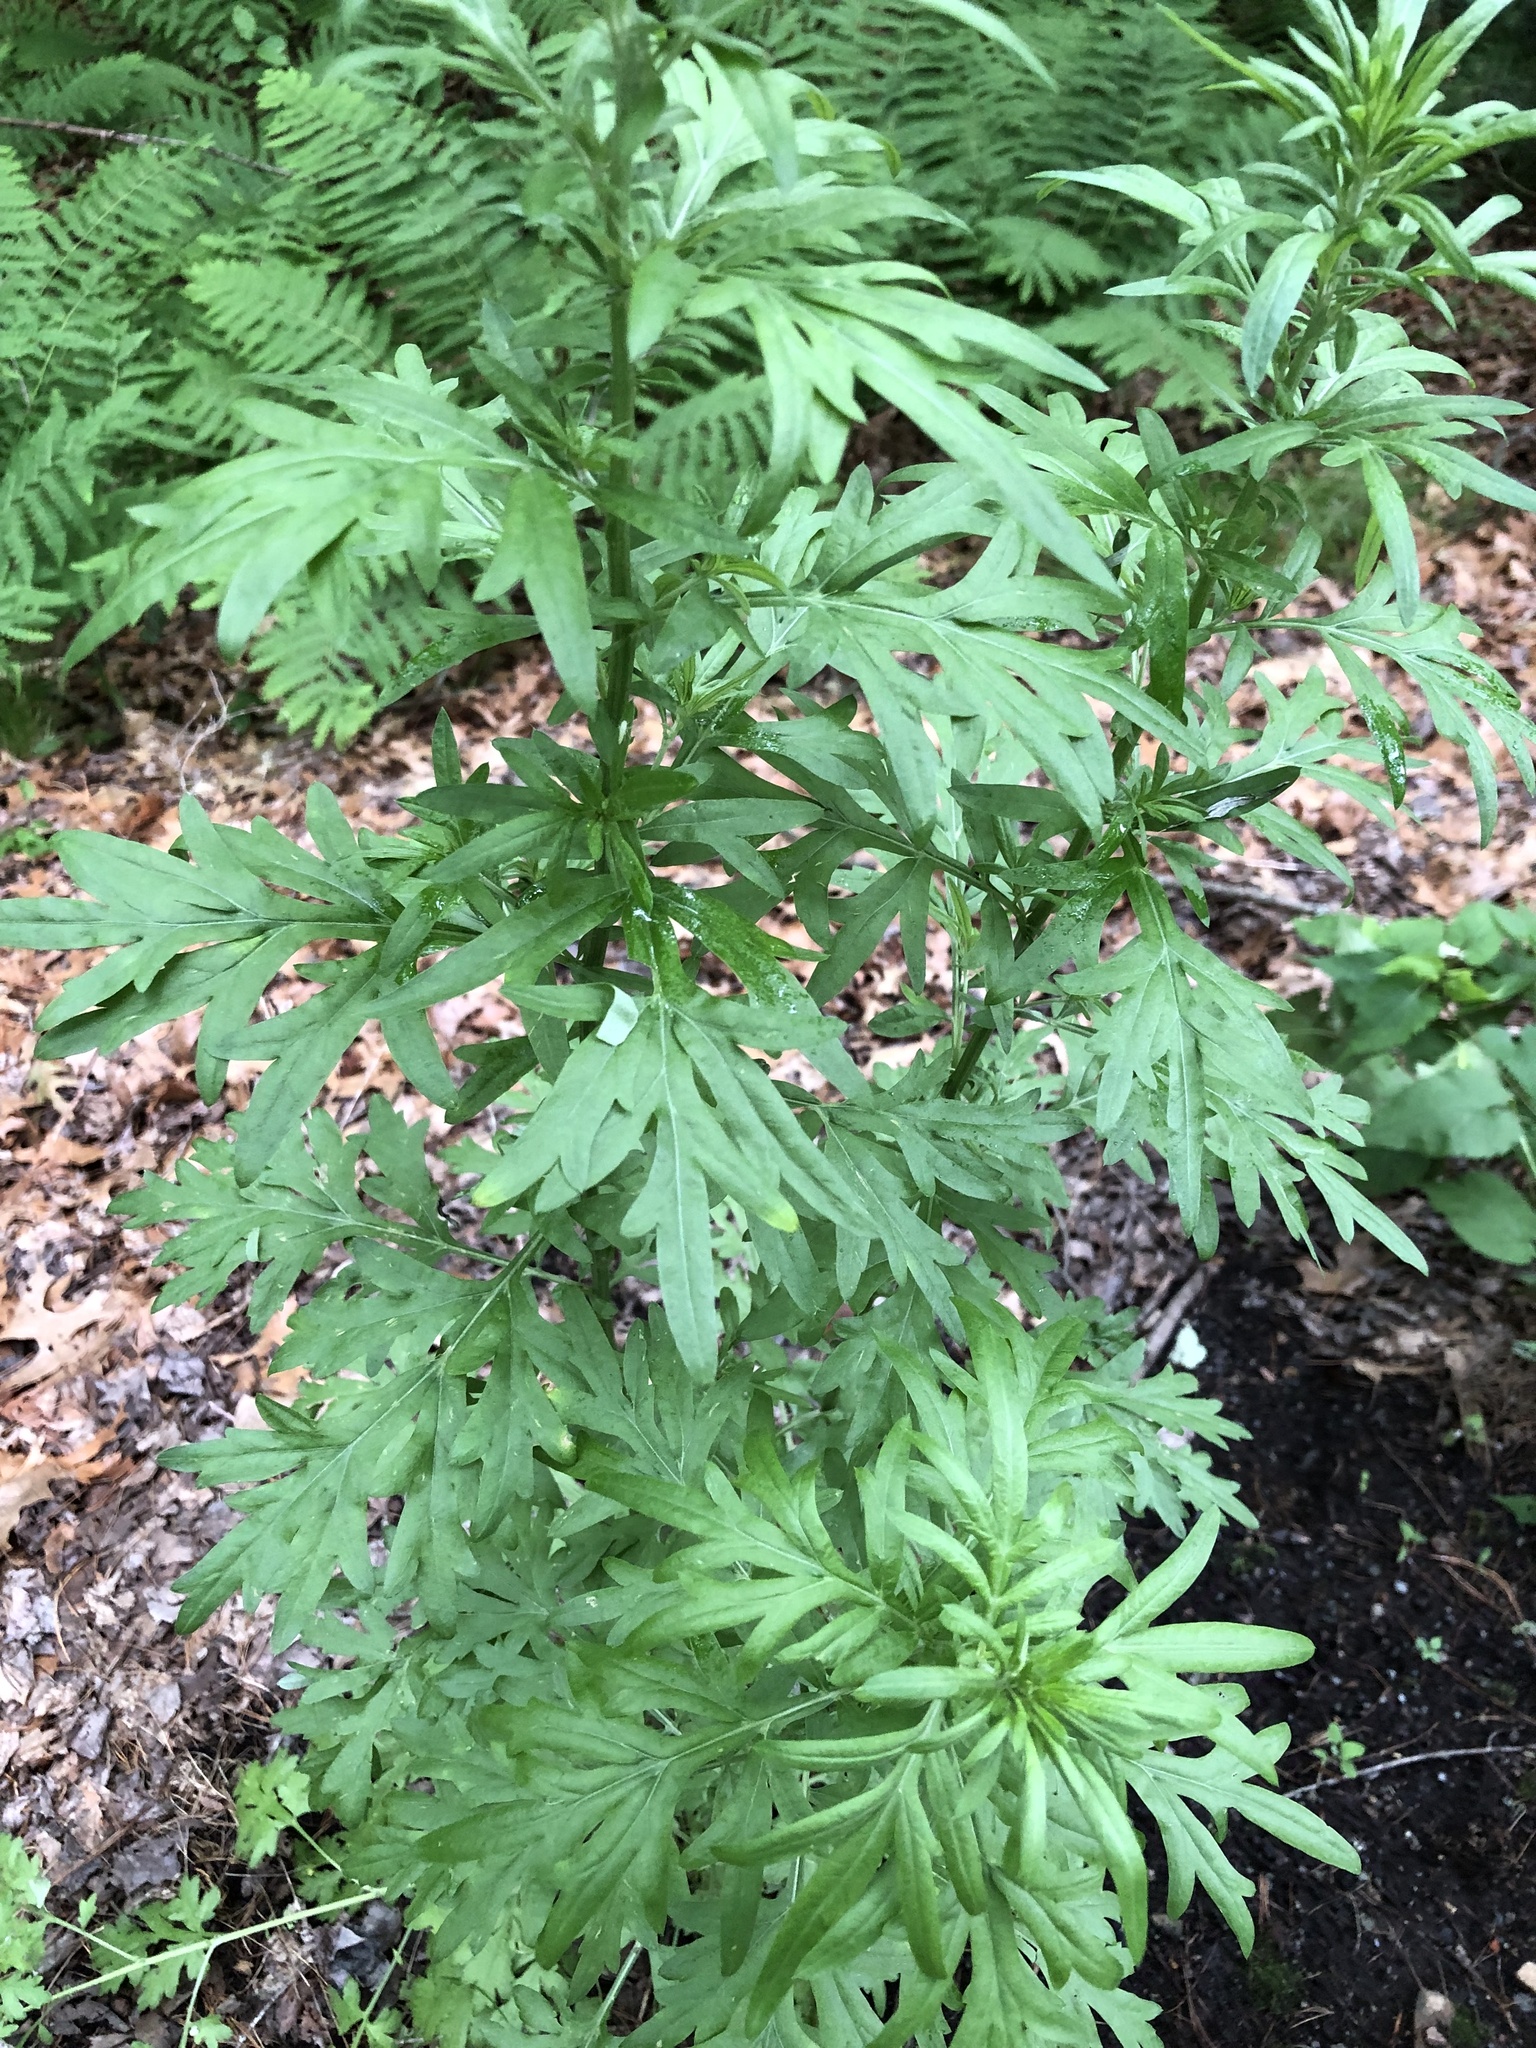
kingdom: Plantae
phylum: Tracheophyta
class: Magnoliopsida
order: Asterales
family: Asteraceae
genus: Artemisia
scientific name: Artemisia vulgaris
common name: Mugwort
